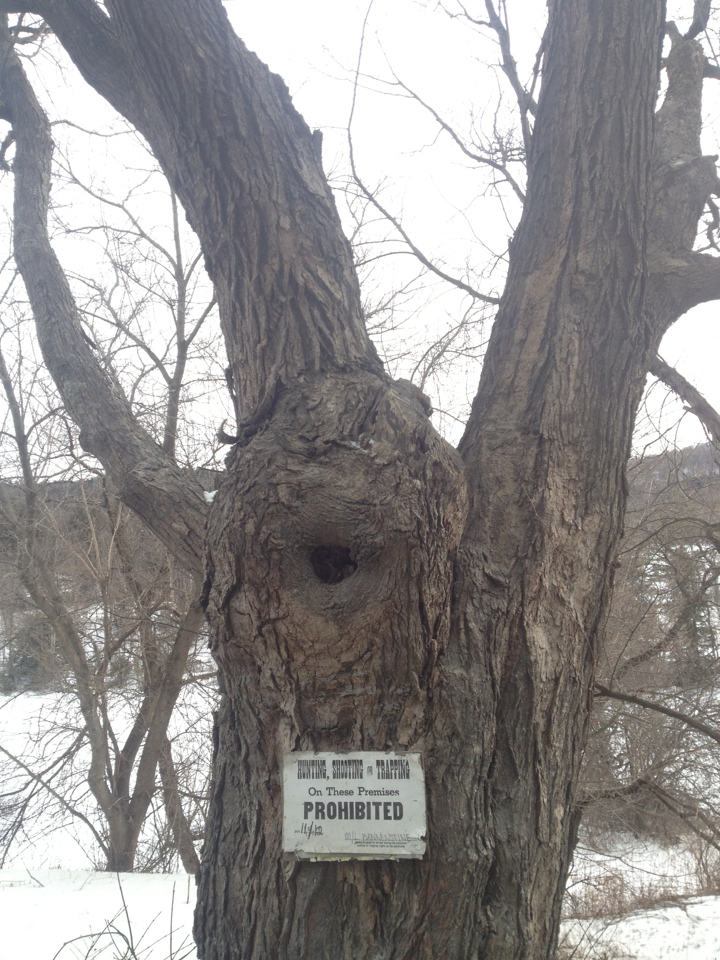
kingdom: Plantae
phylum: Tracheophyta
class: Magnoliopsida
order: Sapindales
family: Sapindaceae
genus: Acer
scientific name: Acer saccharum
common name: Sugar maple
